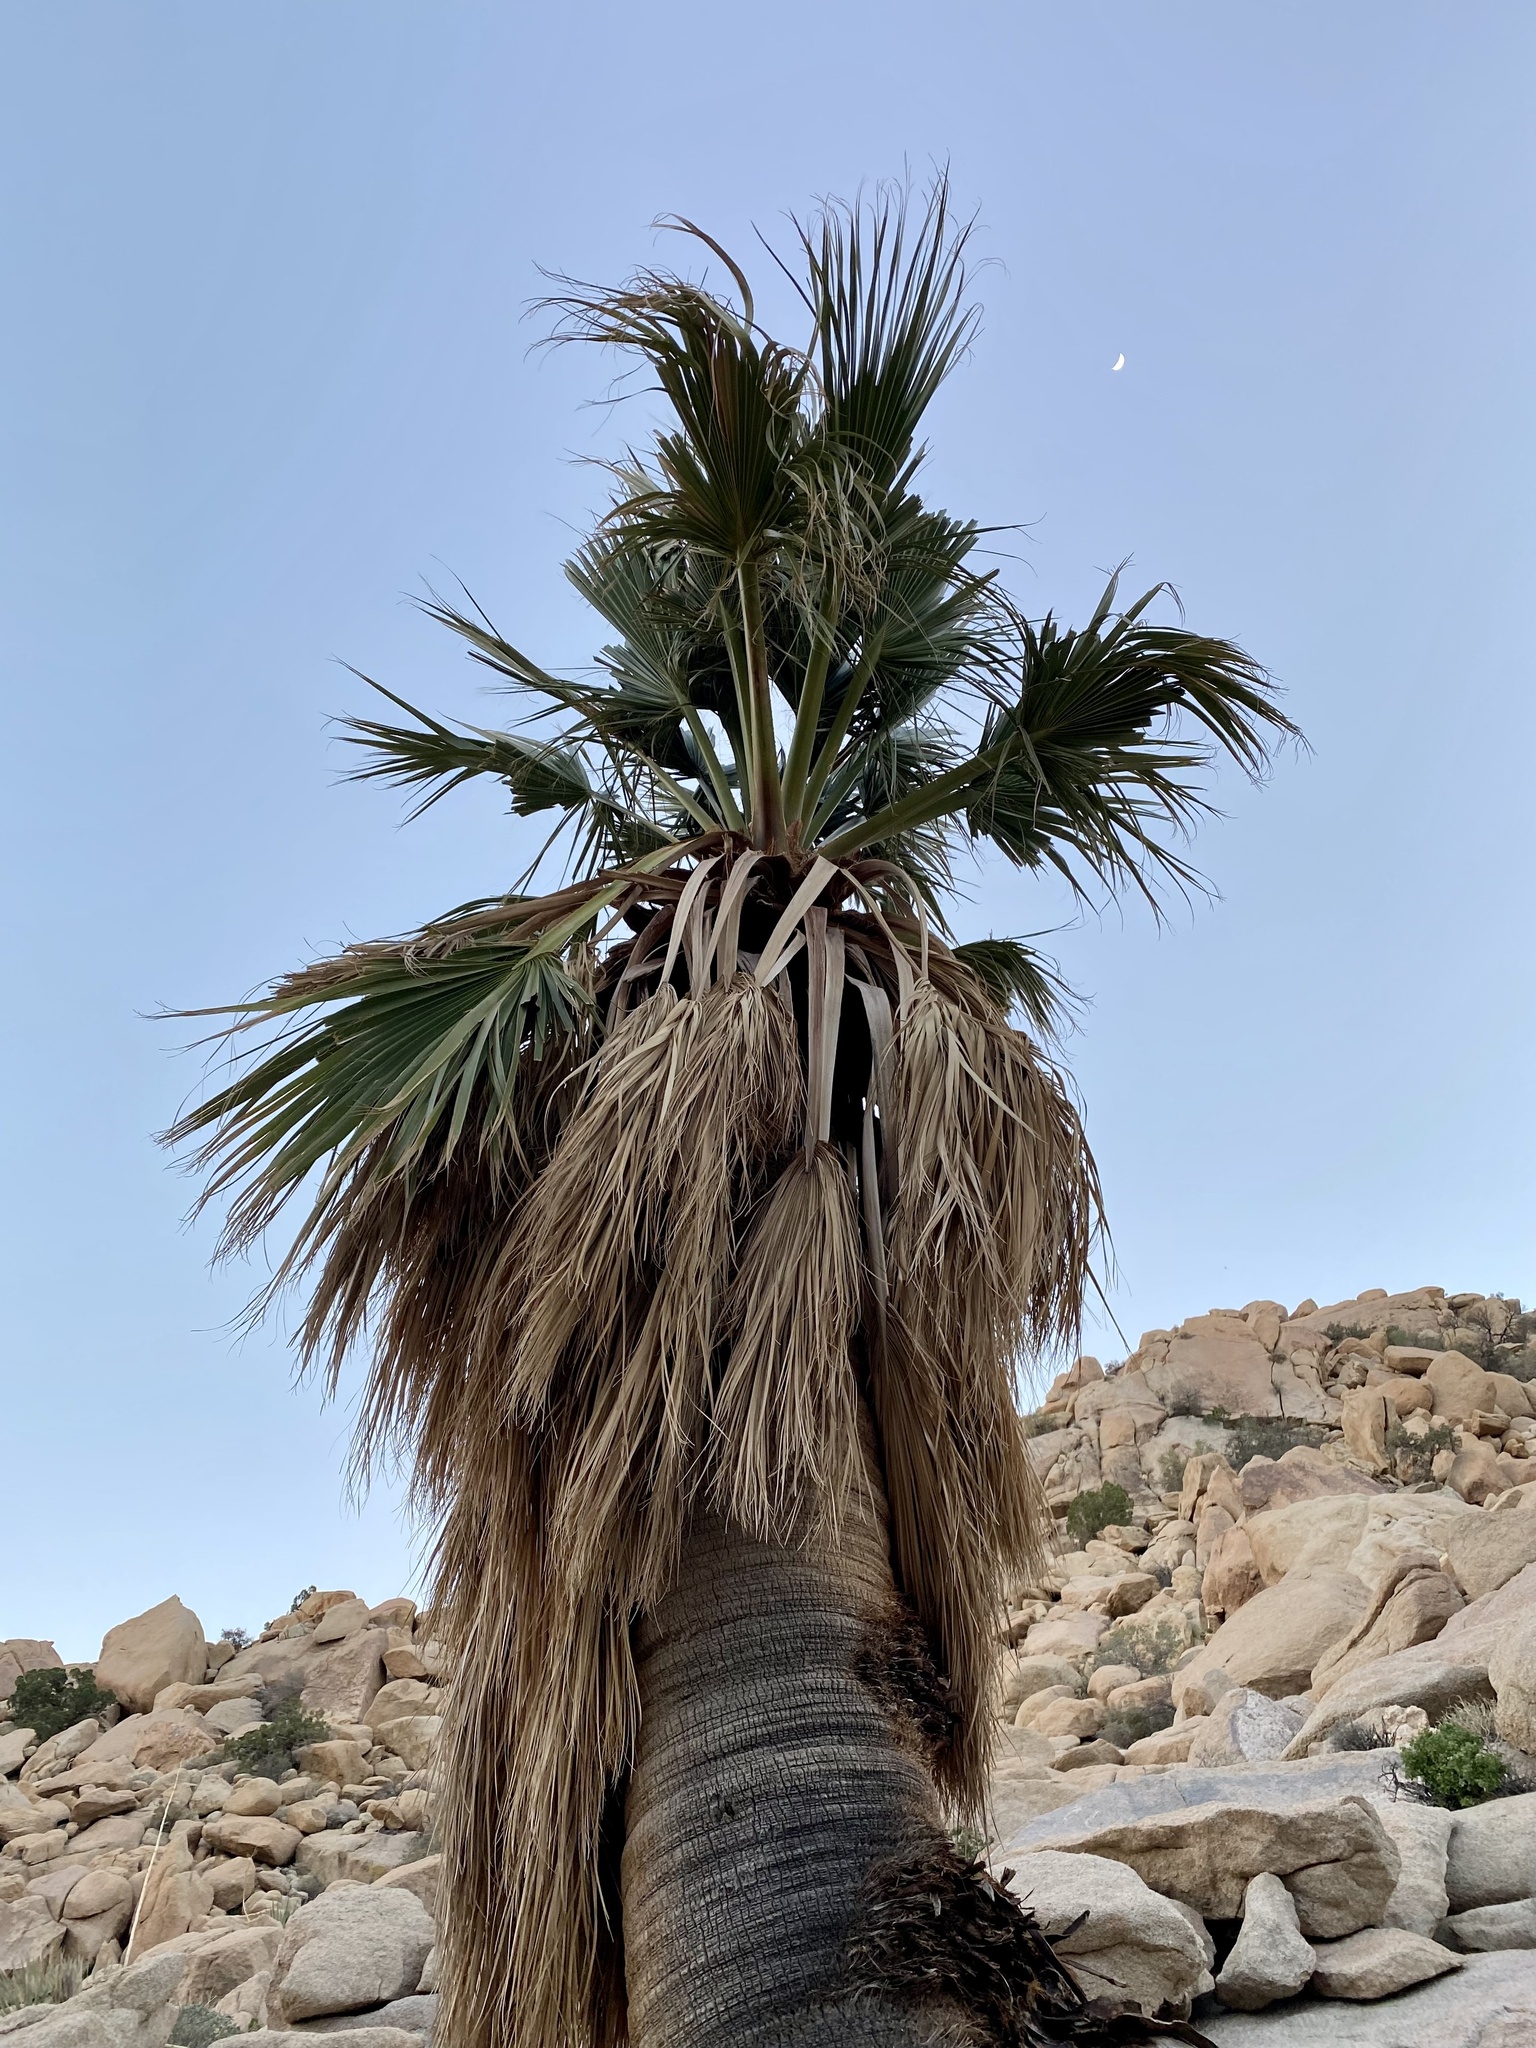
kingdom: Plantae
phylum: Tracheophyta
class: Liliopsida
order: Arecales
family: Arecaceae
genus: Washingtonia
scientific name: Washingtonia filifera
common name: California fan palm
